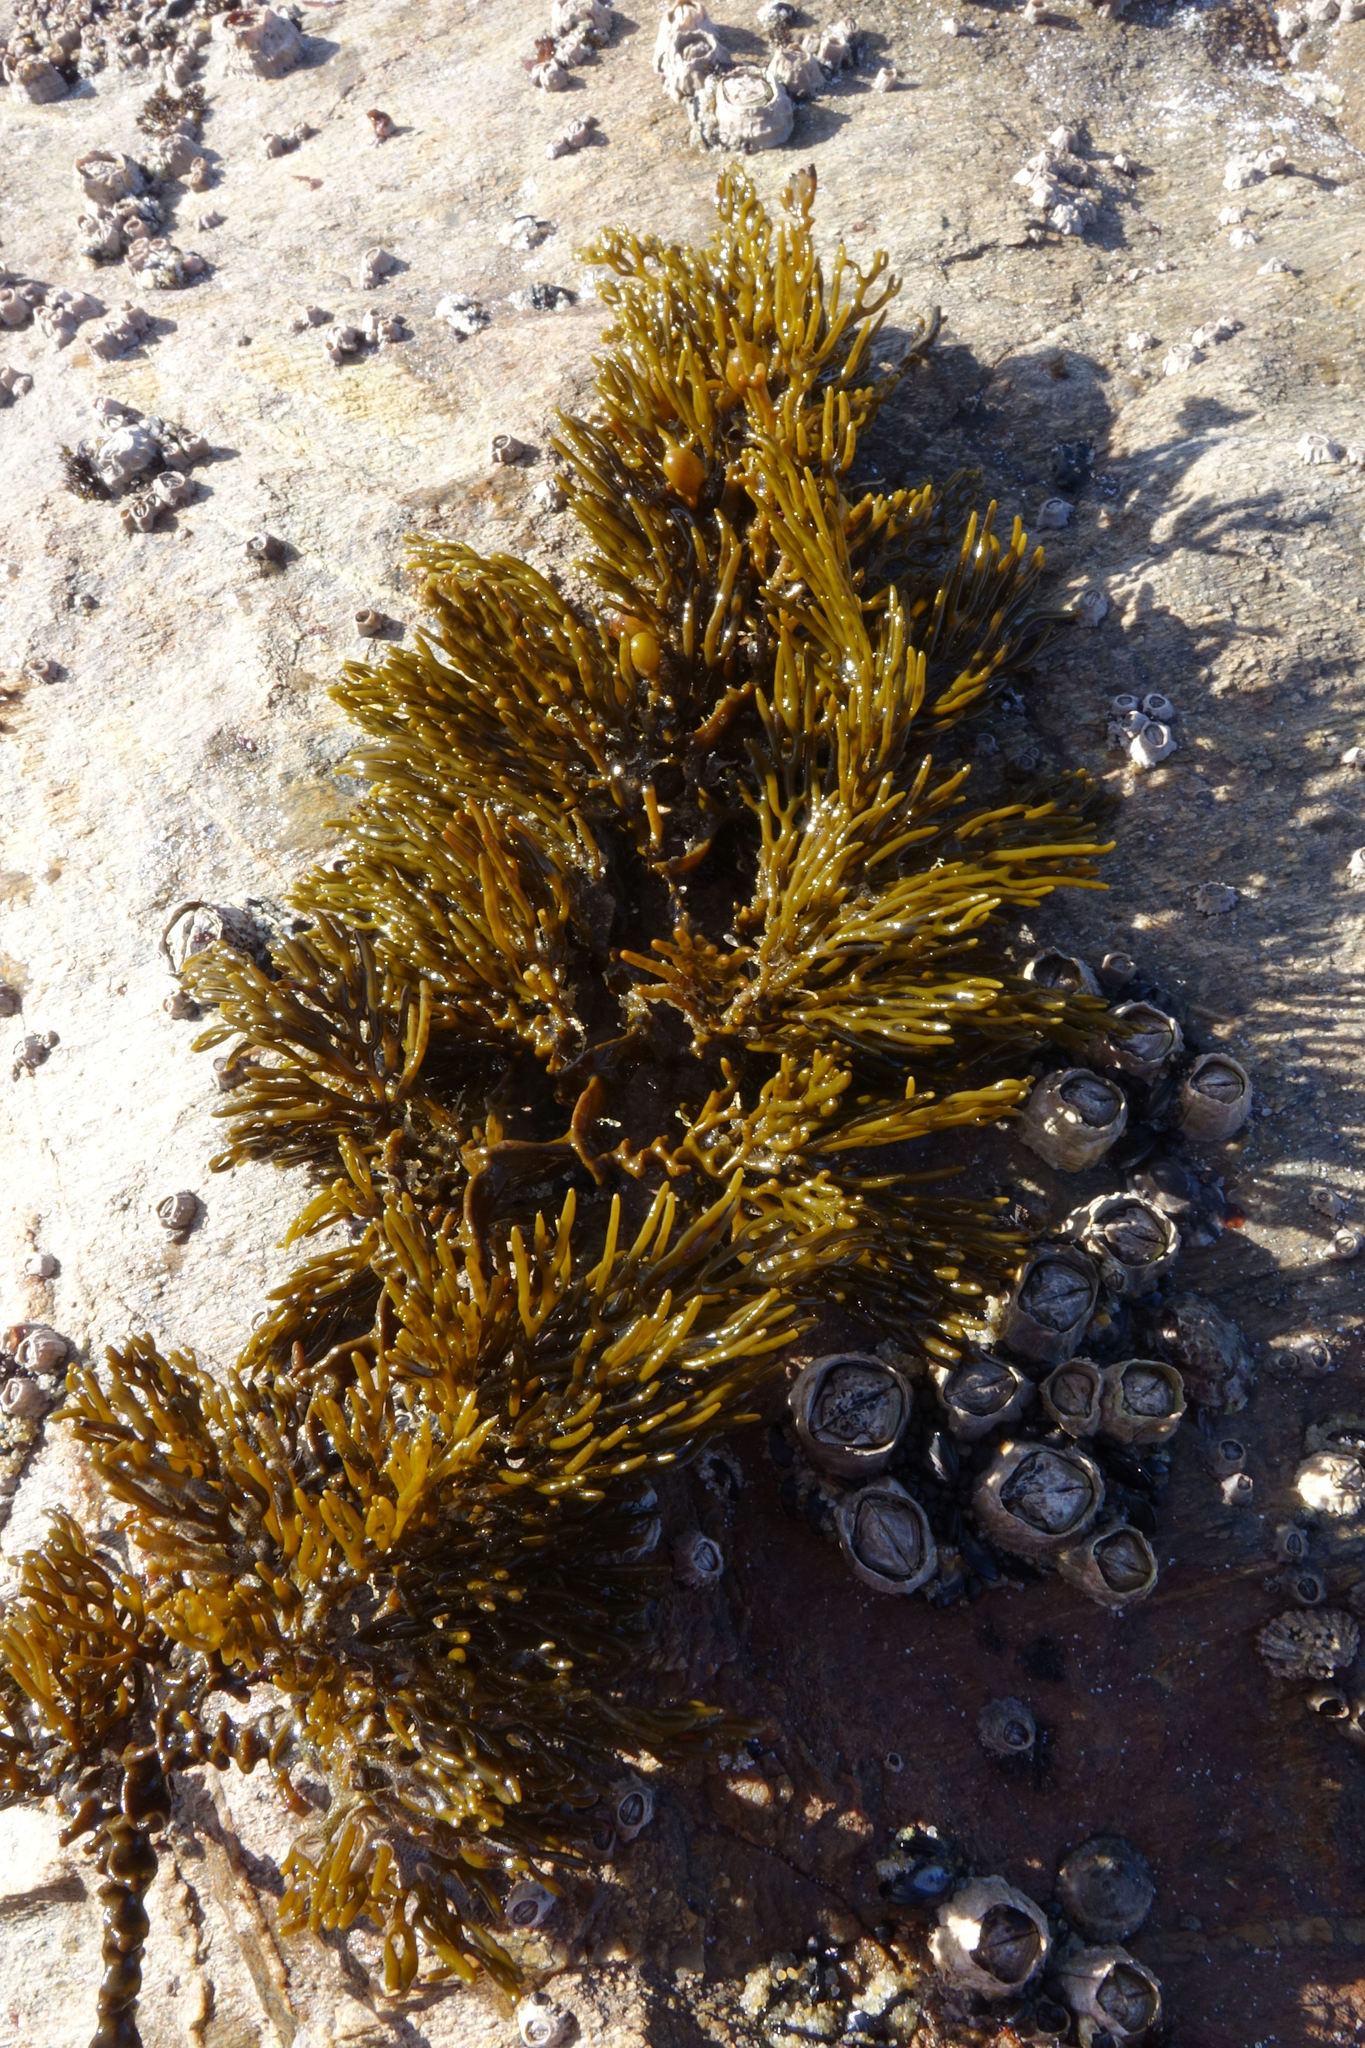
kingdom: Chromista
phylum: Ochrophyta
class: Phaeophyceae
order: Fucales
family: Sargassaceae
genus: Cystophora
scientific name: Cystophora scalaris
